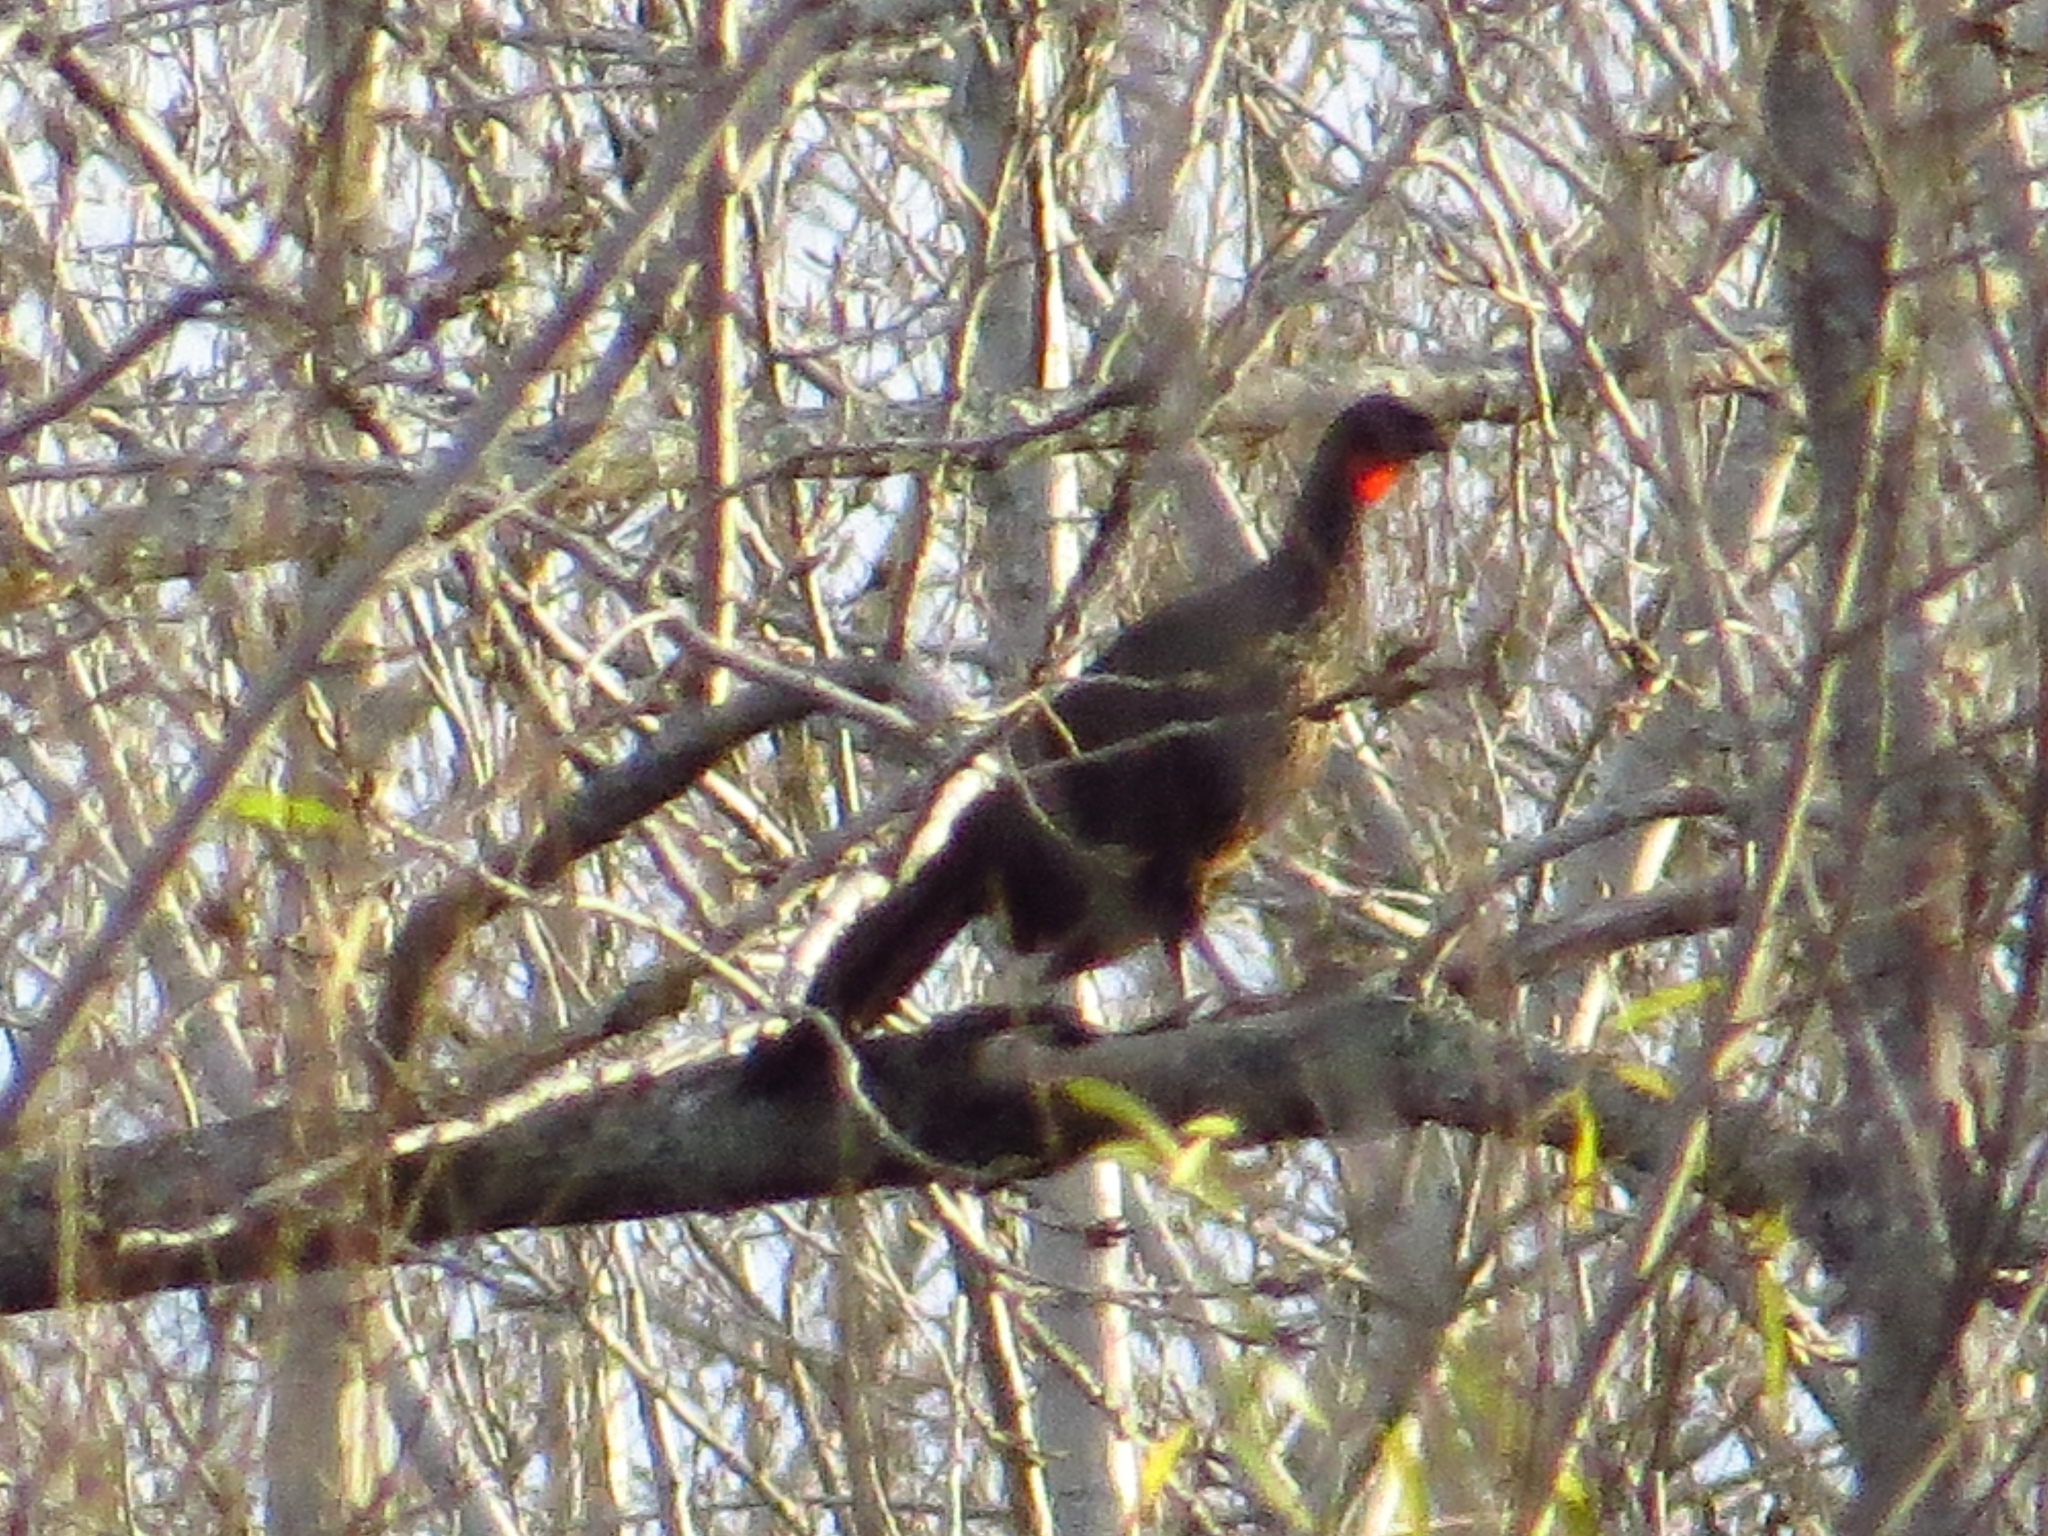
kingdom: Animalia
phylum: Chordata
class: Aves
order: Galliformes
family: Cracidae
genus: Penelope
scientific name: Penelope obscura
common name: Dusky-legged guan
